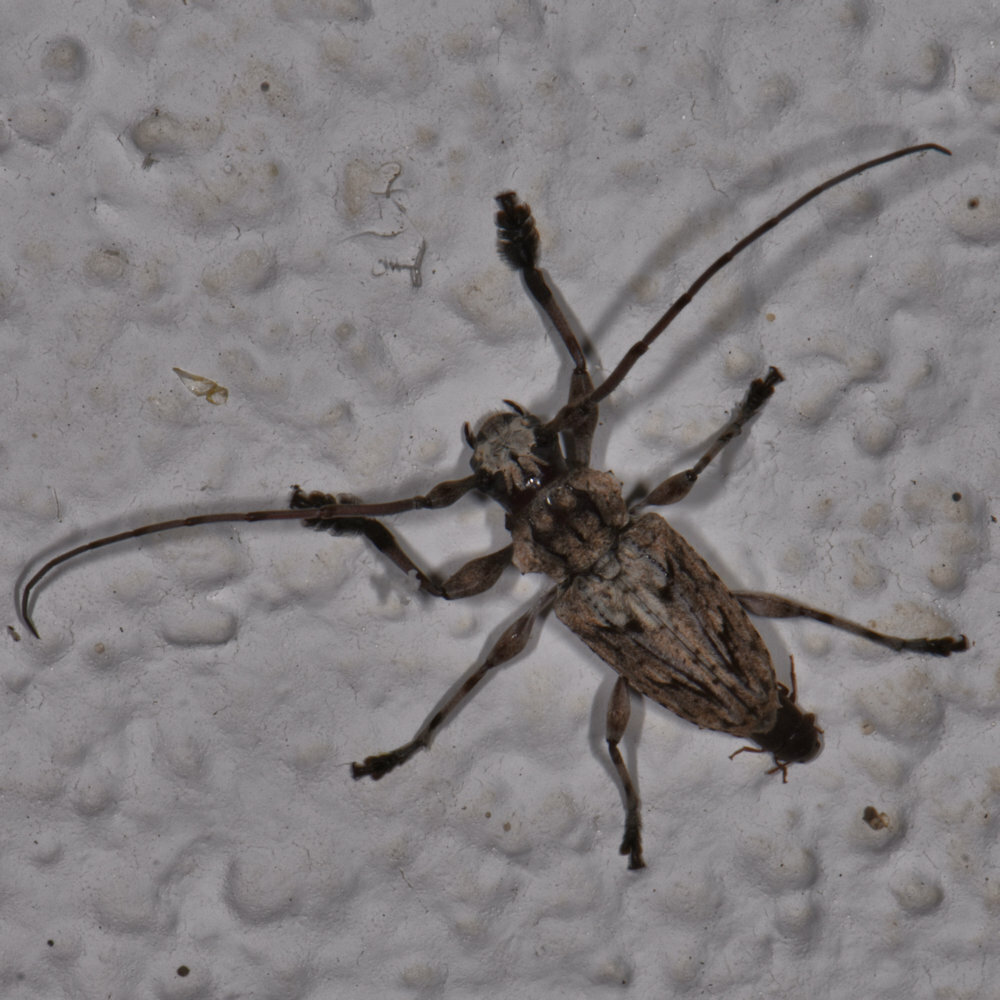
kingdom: Animalia
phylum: Arthropoda
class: Insecta
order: Coleoptera
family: Cerambycidae
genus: Steirastoma
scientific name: Steirastoma histrionicum
